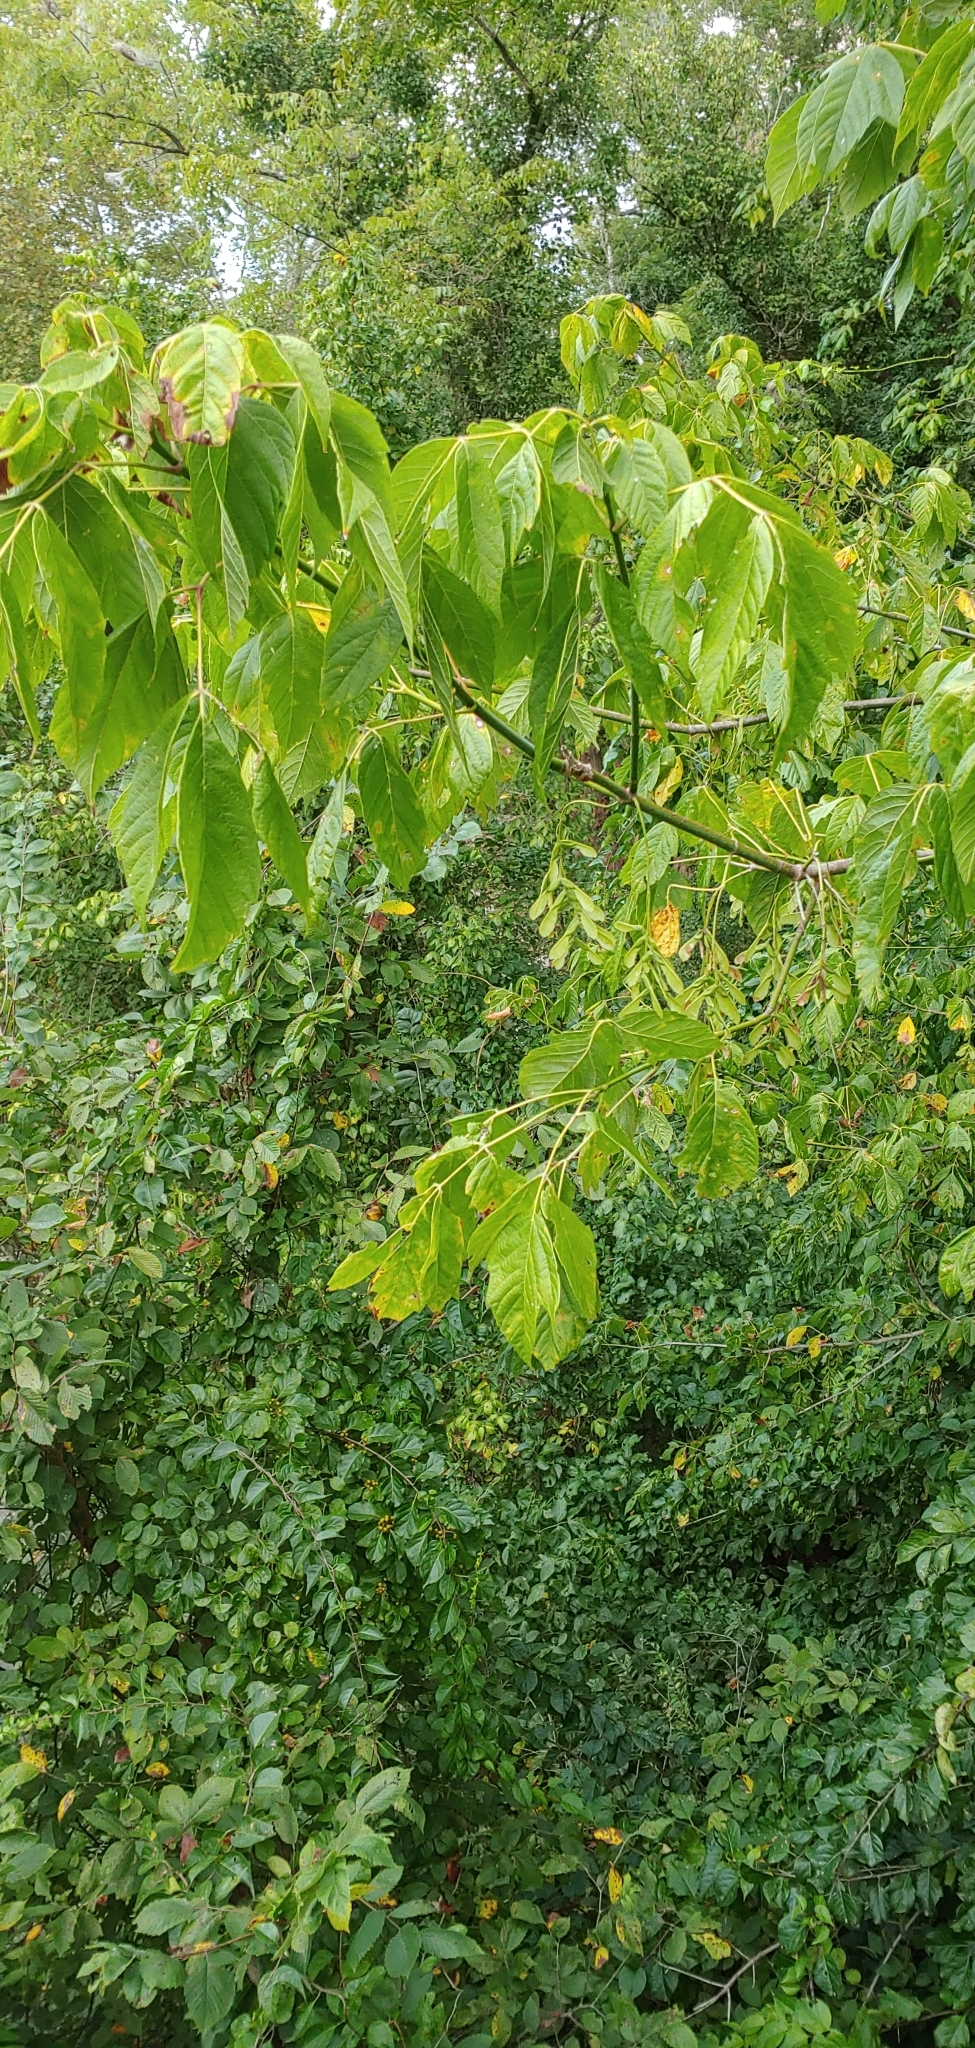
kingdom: Plantae
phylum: Tracheophyta
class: Magnoliopsida
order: Sapindales
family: Sapindaceae
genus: Acer
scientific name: Acer negundo
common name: Ashleaf maple
